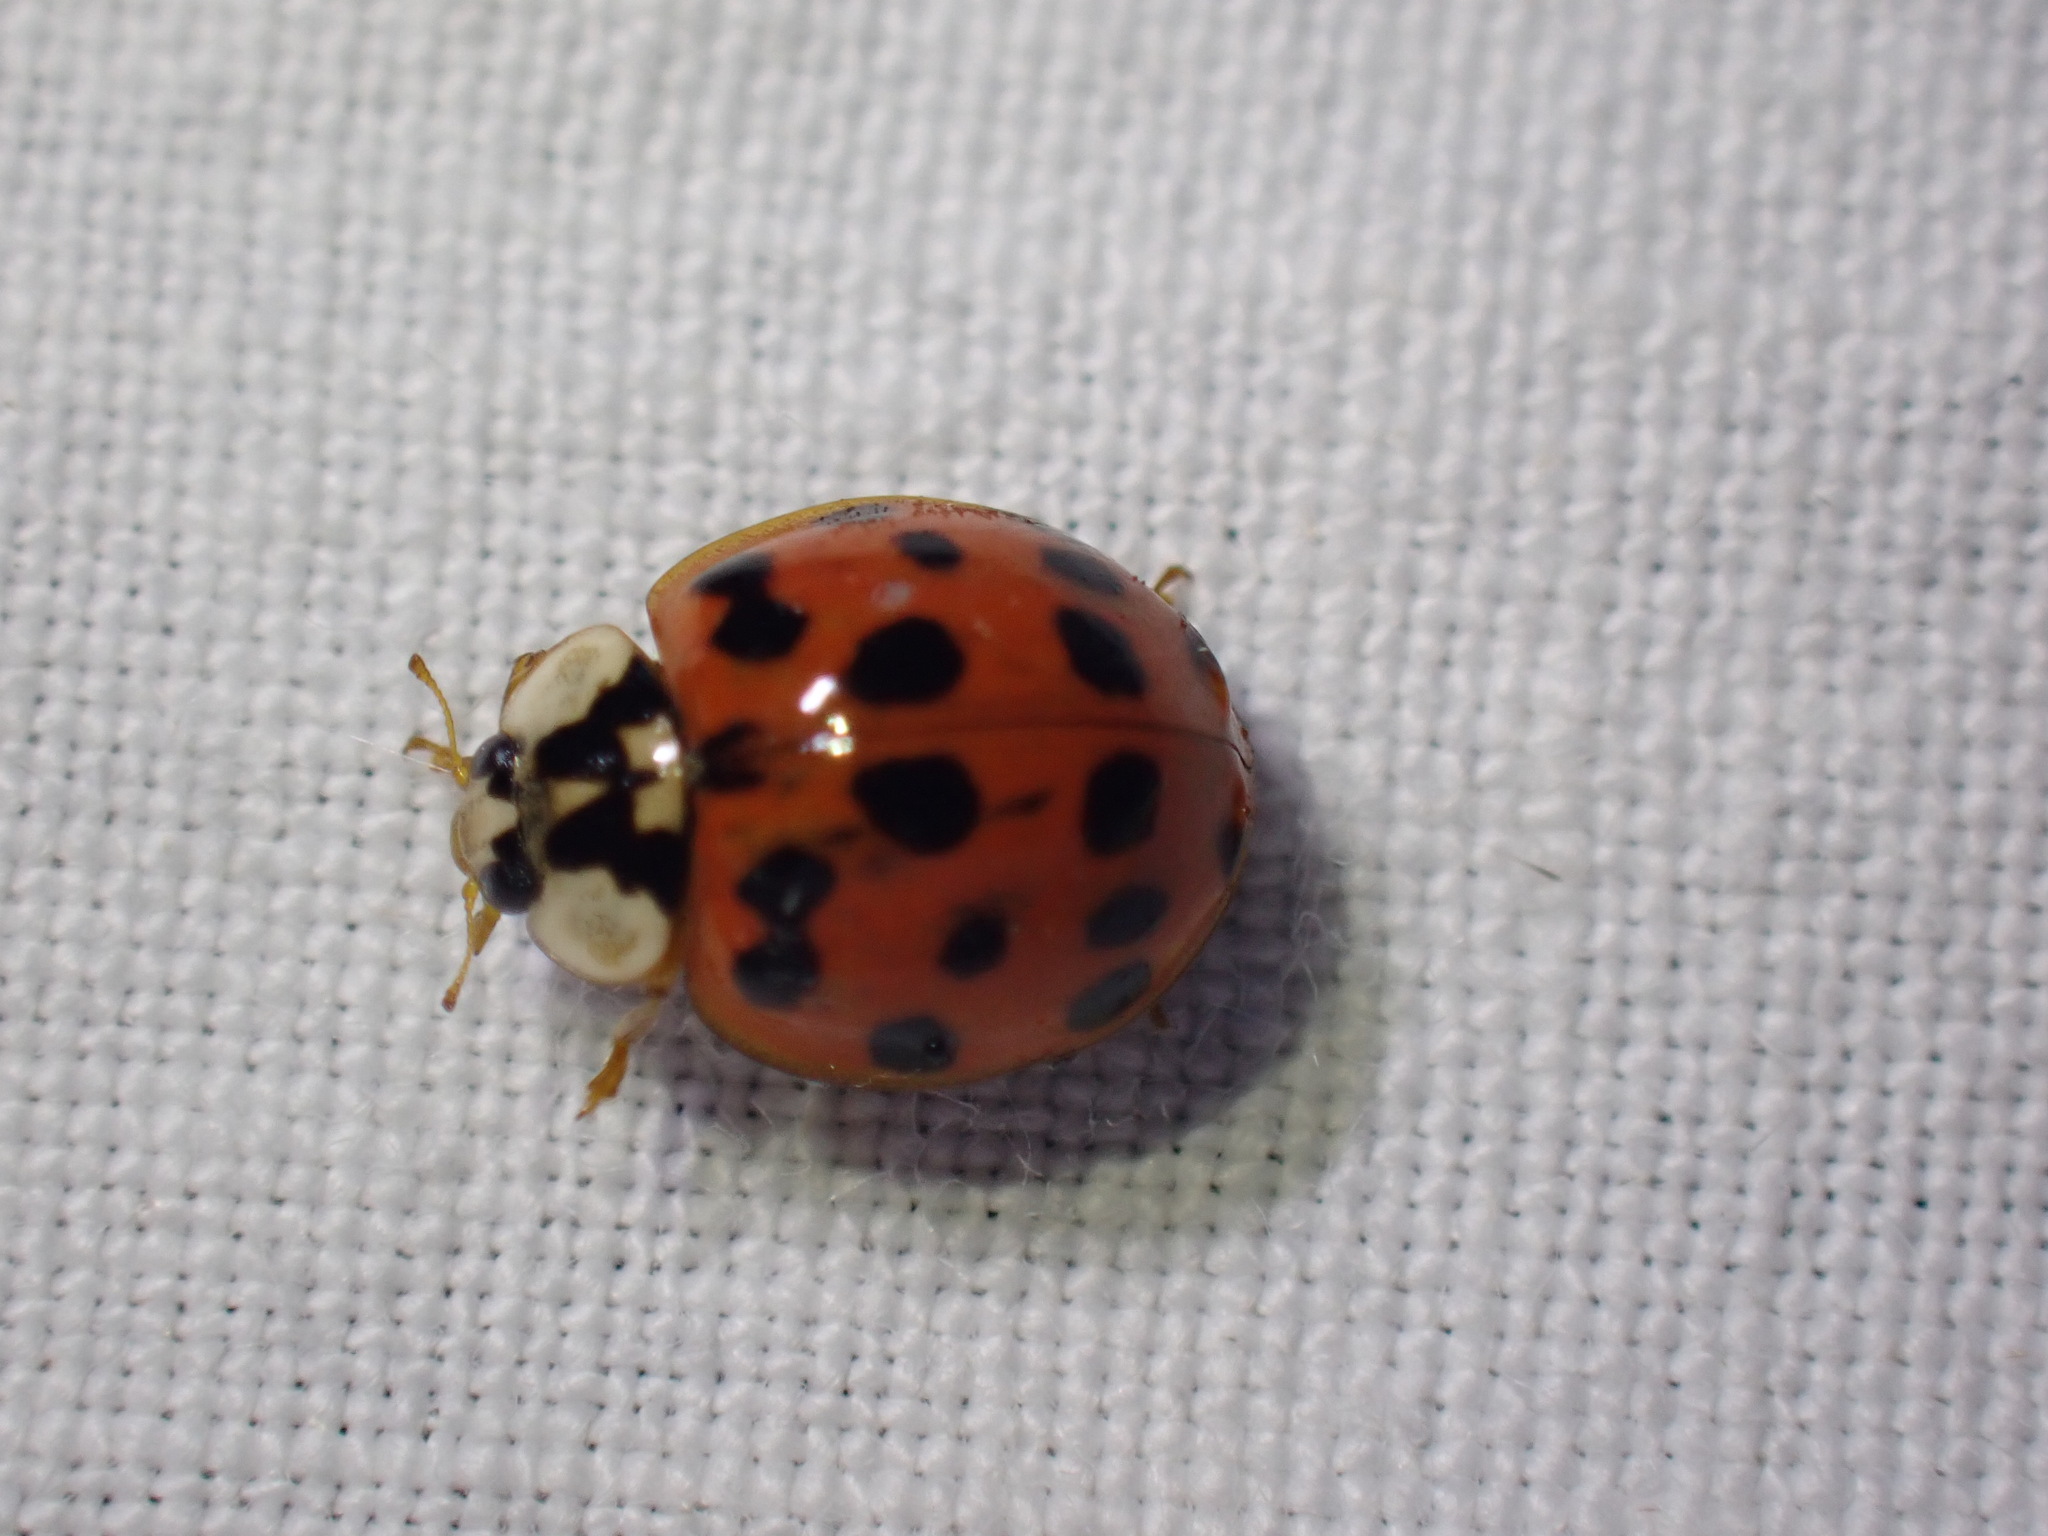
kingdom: Animalia
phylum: Arthropoda
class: Insecta
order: Coleoptera
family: Coccinellidae
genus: Harmonia
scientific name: Harmonia axyridis
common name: Harlequin ladybird
